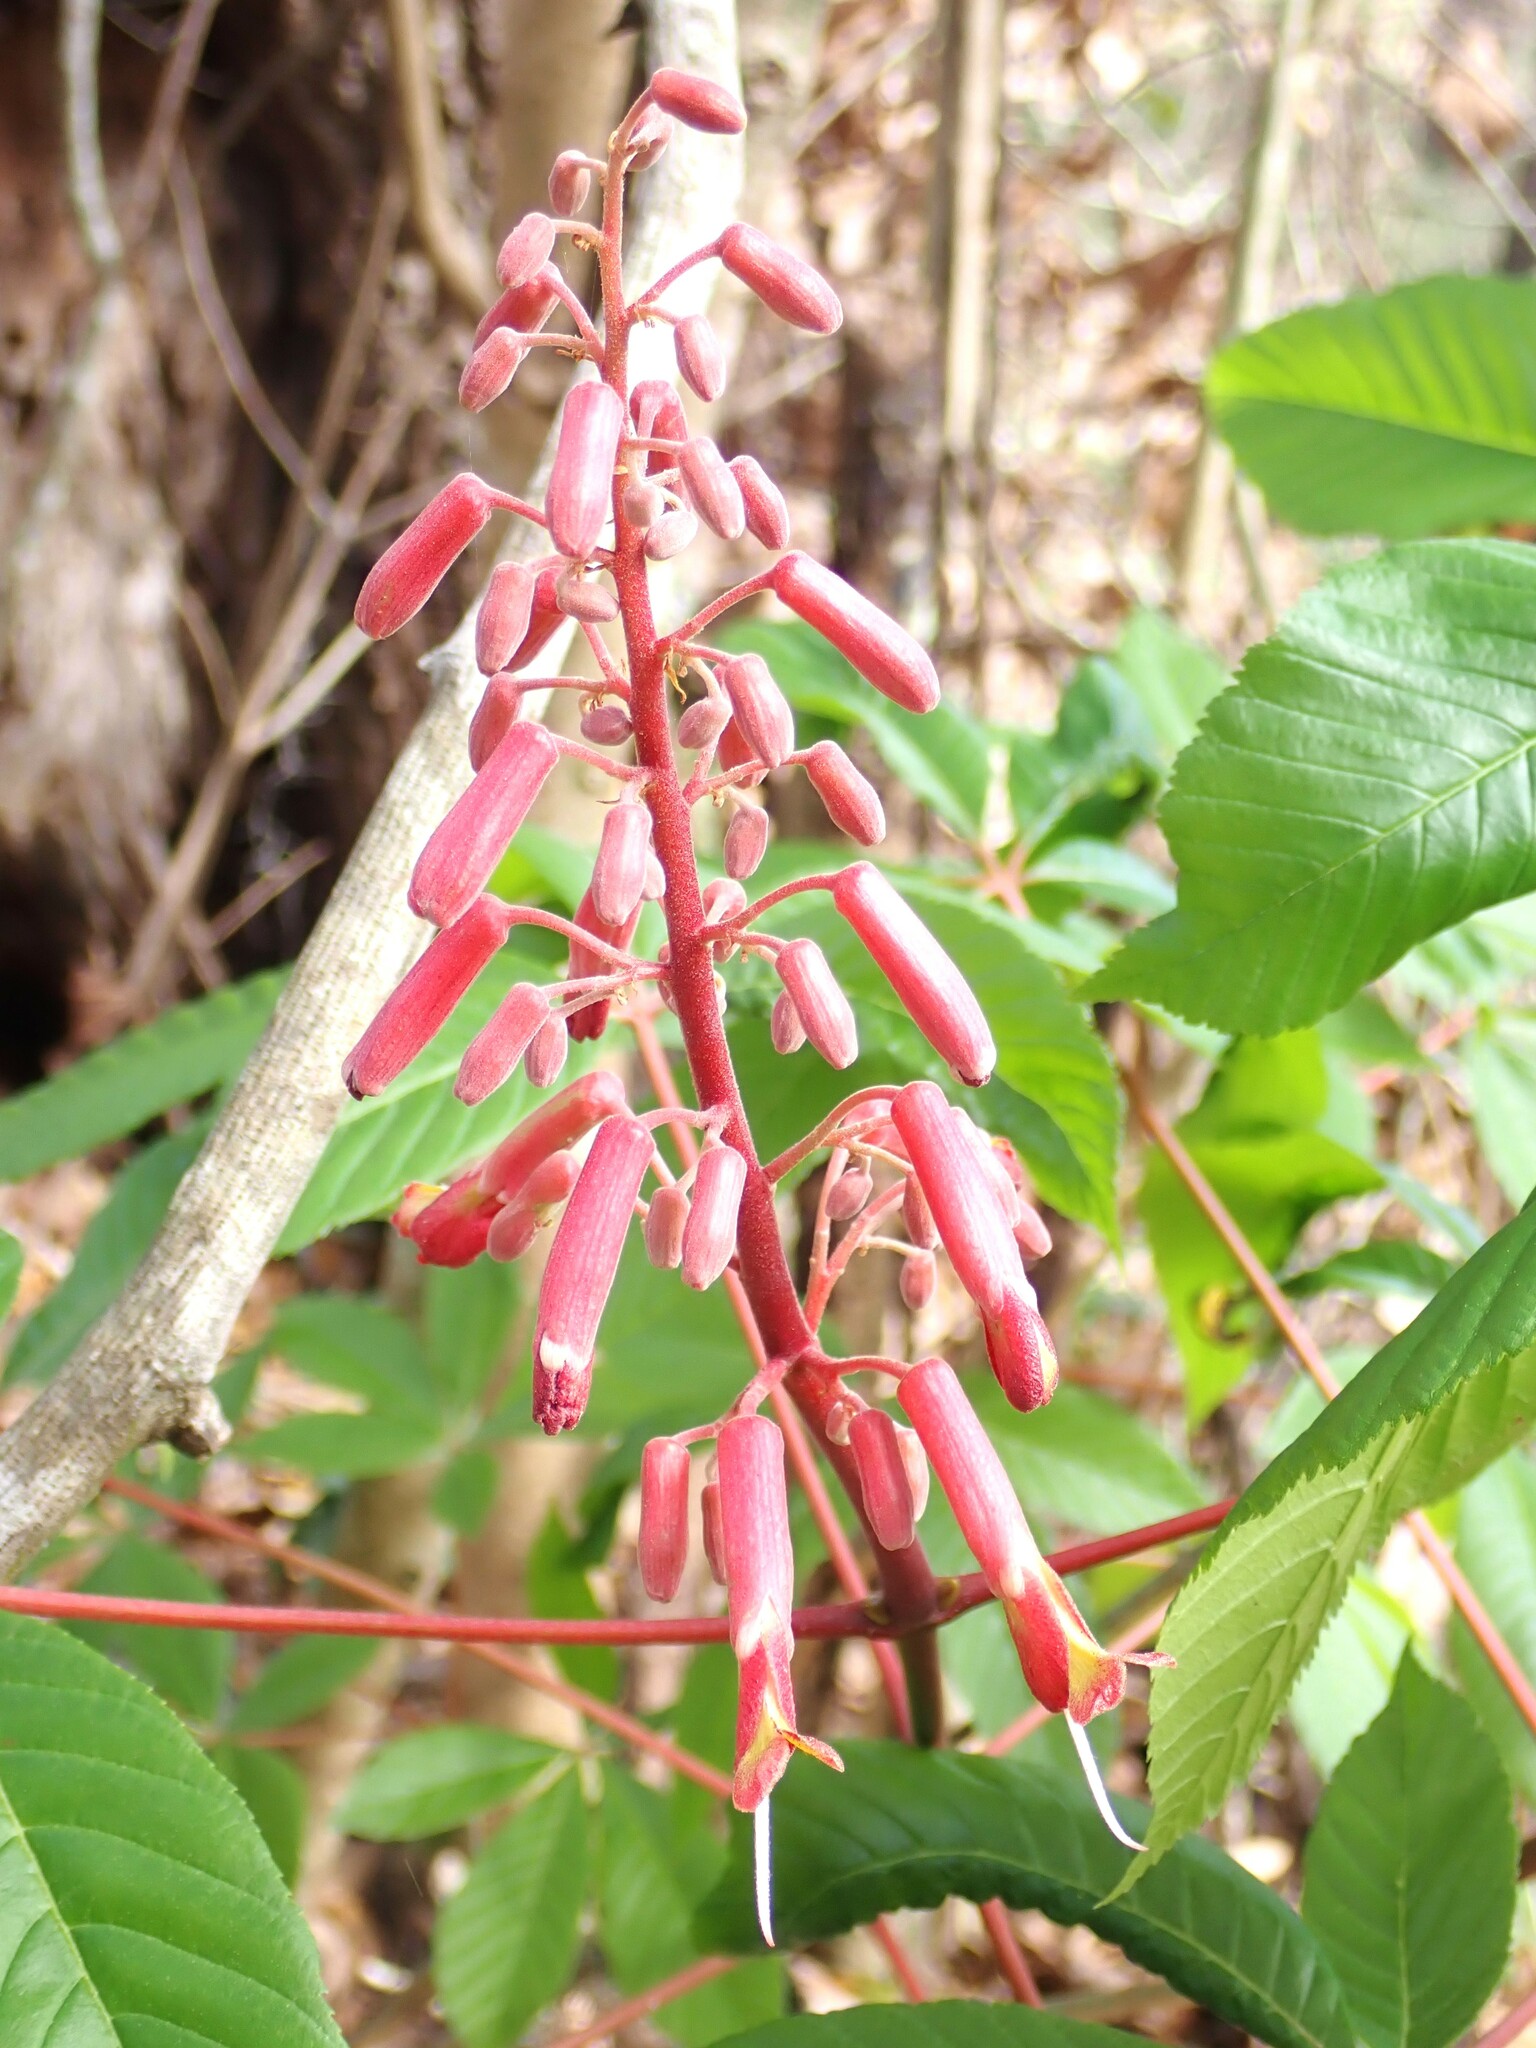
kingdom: Plantae
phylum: Tracheophyta
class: Magnoliopsida
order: Sapindales
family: Sapindaceae
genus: Aesculus
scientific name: Aesculus pavia
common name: Red buckeye
